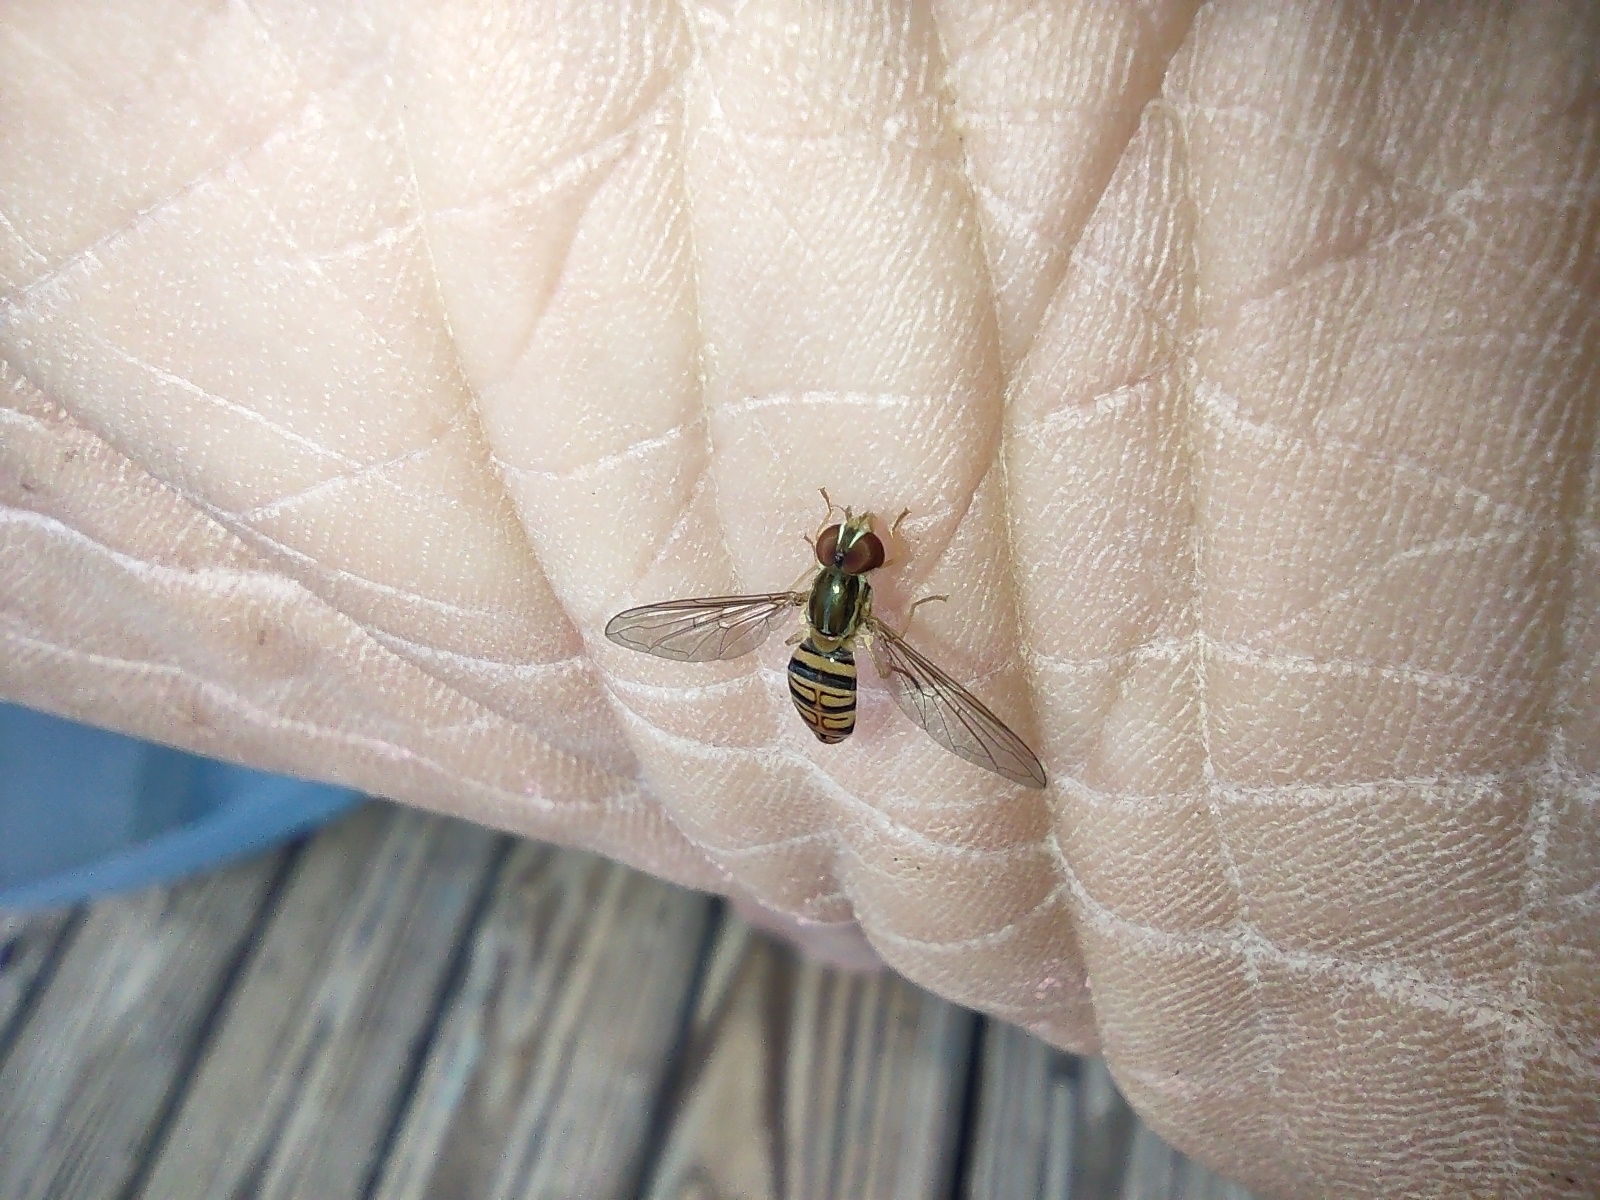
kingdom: Animalia
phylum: Arthropoda
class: Insecta
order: Diptera
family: Syrphidae
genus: Toxomerus
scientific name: Toxomerus politus
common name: Maize calligrapher
